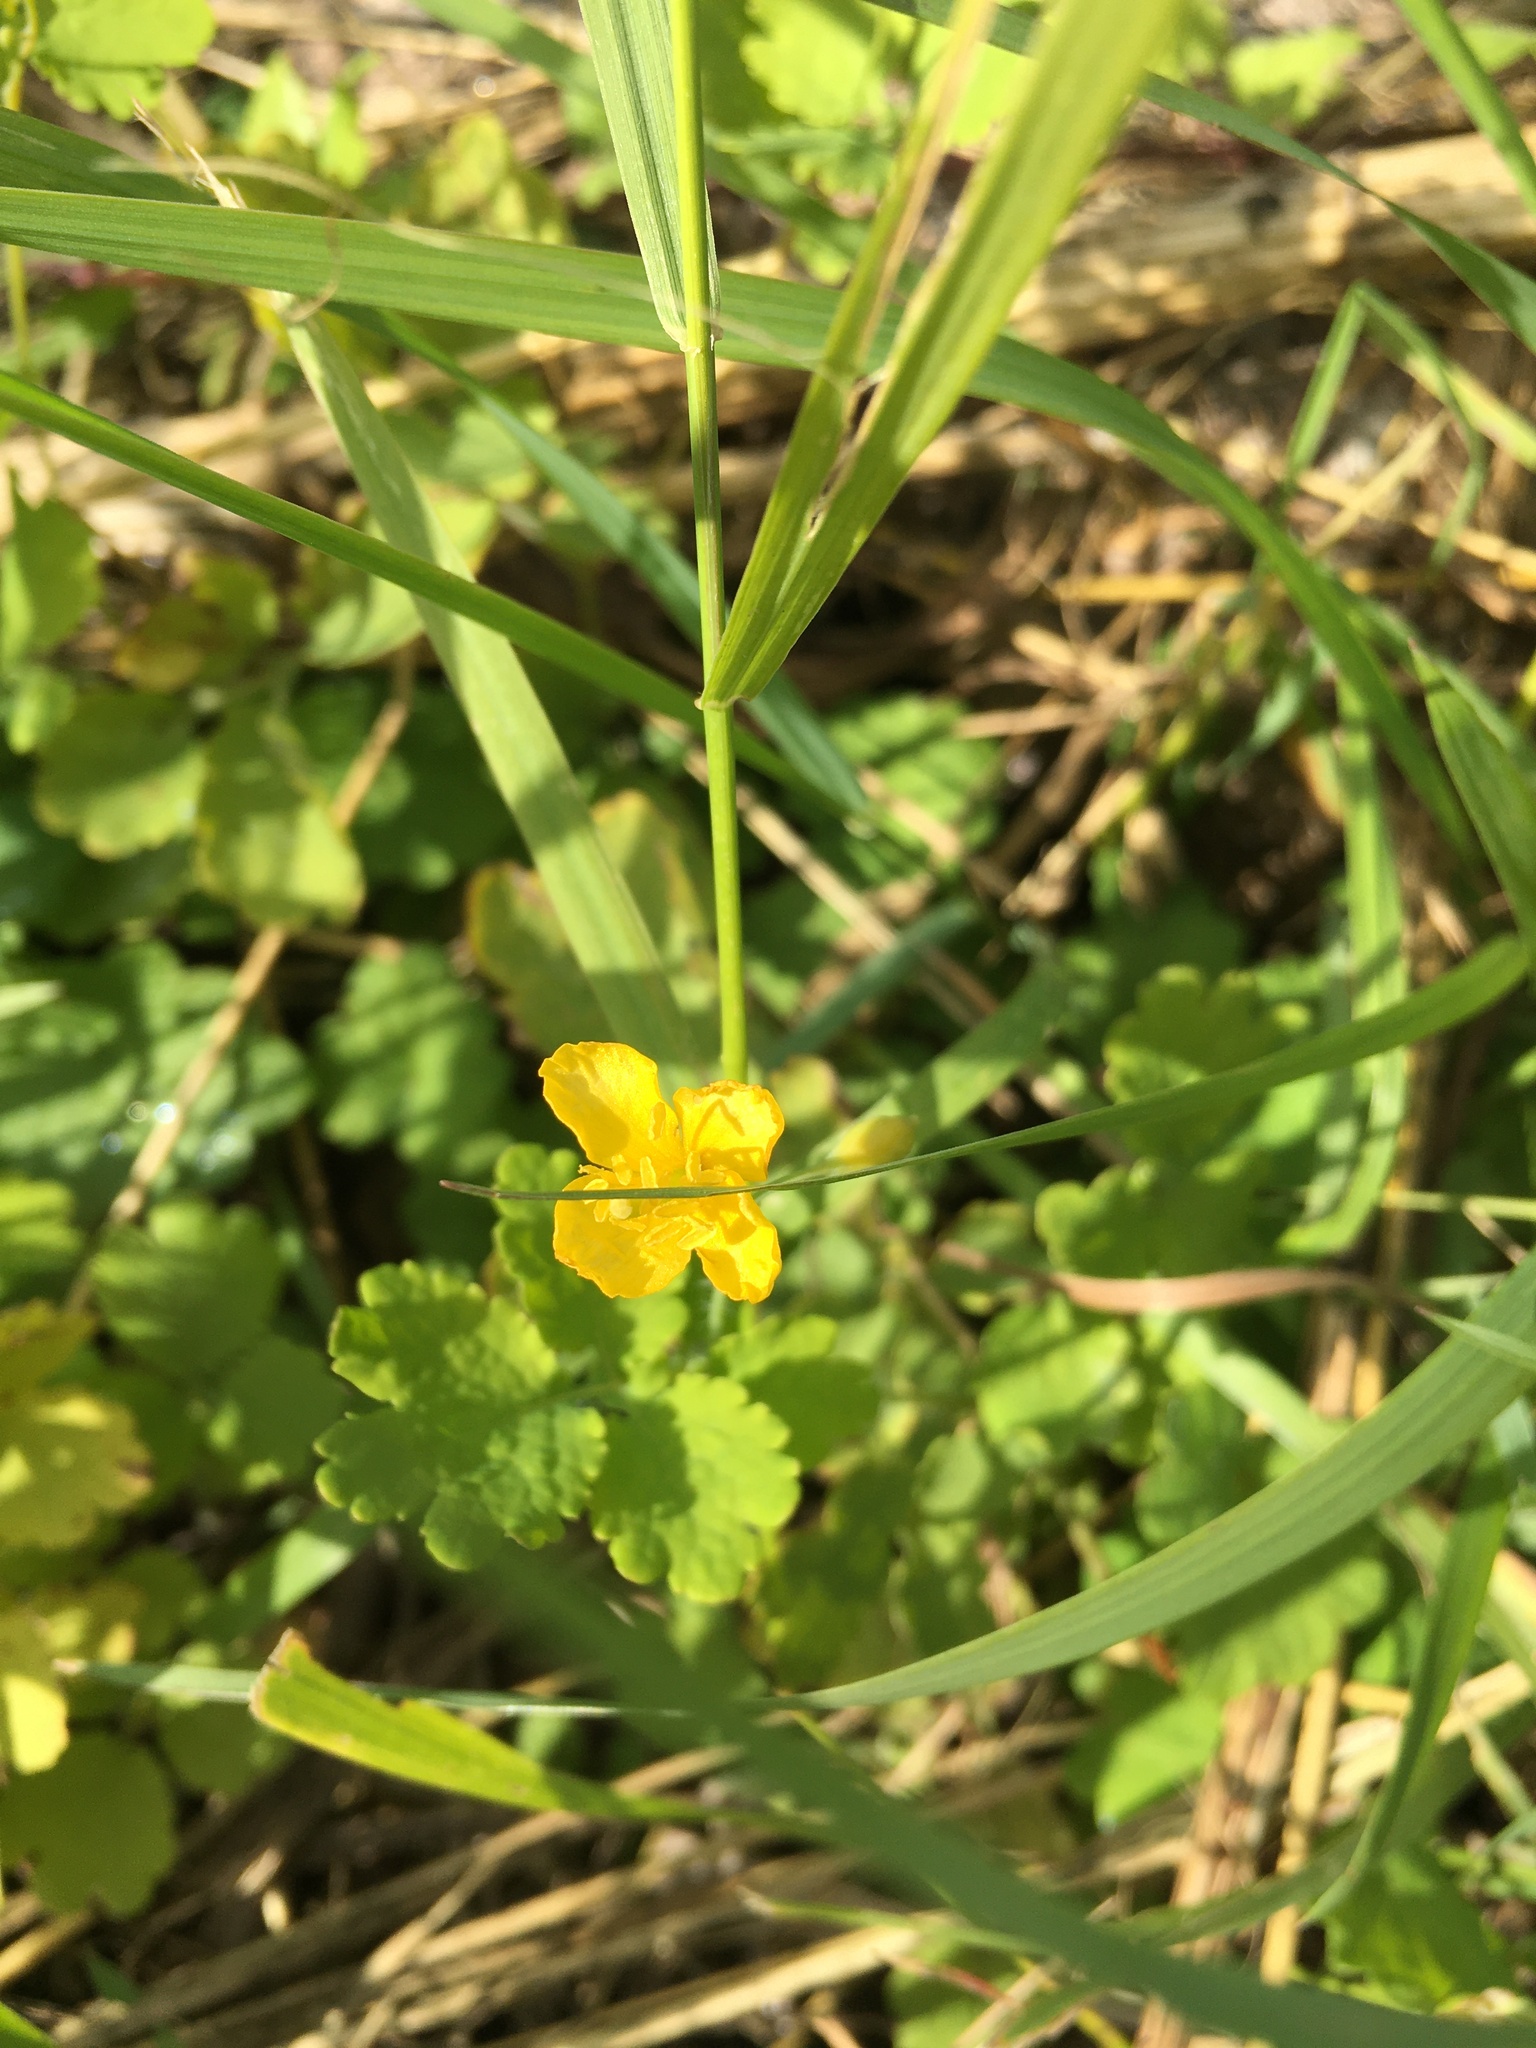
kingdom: Plantae
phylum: Tracheophyta
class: Magnoliopsida
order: Ranunculales
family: Papaveraceae
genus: Chelidonium
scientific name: Chelidonium majus
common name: Greater celandine
